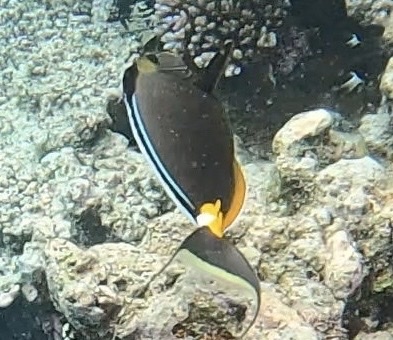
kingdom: Animalia
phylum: Chordata
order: Perciformes
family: Acanthuridae
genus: Naso
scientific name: Naso lituratus
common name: Orangespine unicornfish
